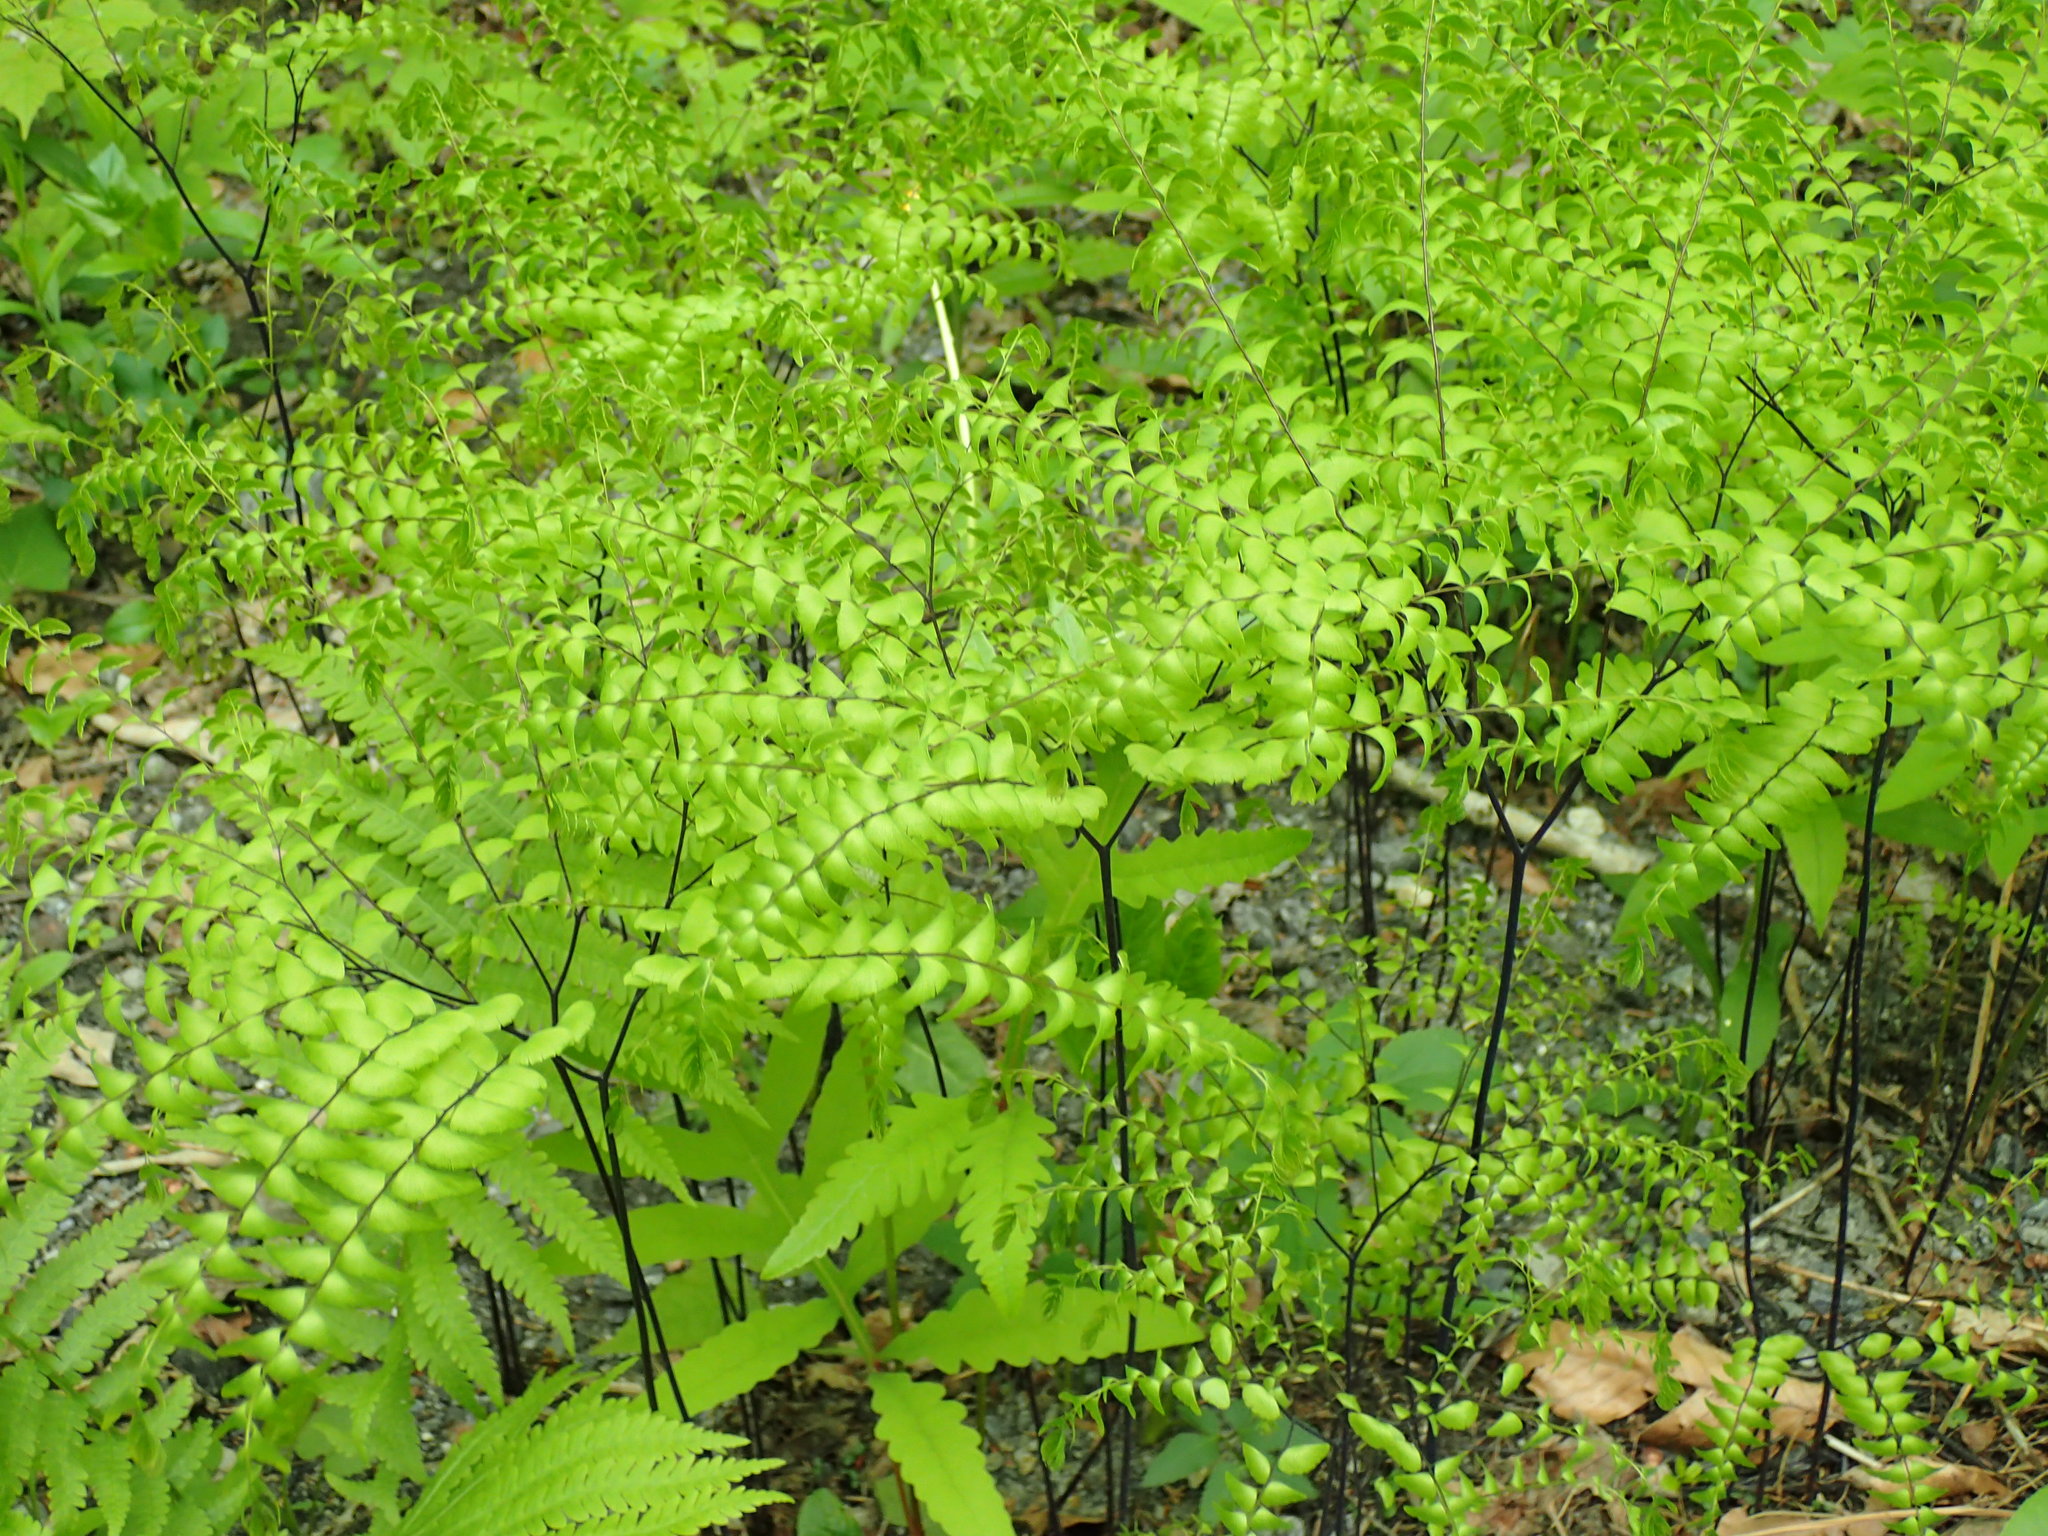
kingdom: Plantae
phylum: Tracheophyta
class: Polypodiopsida
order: Polypodiales
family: Pteridaceae
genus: Adiantum
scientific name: Adiantum pedatum
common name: Five-finger fern
